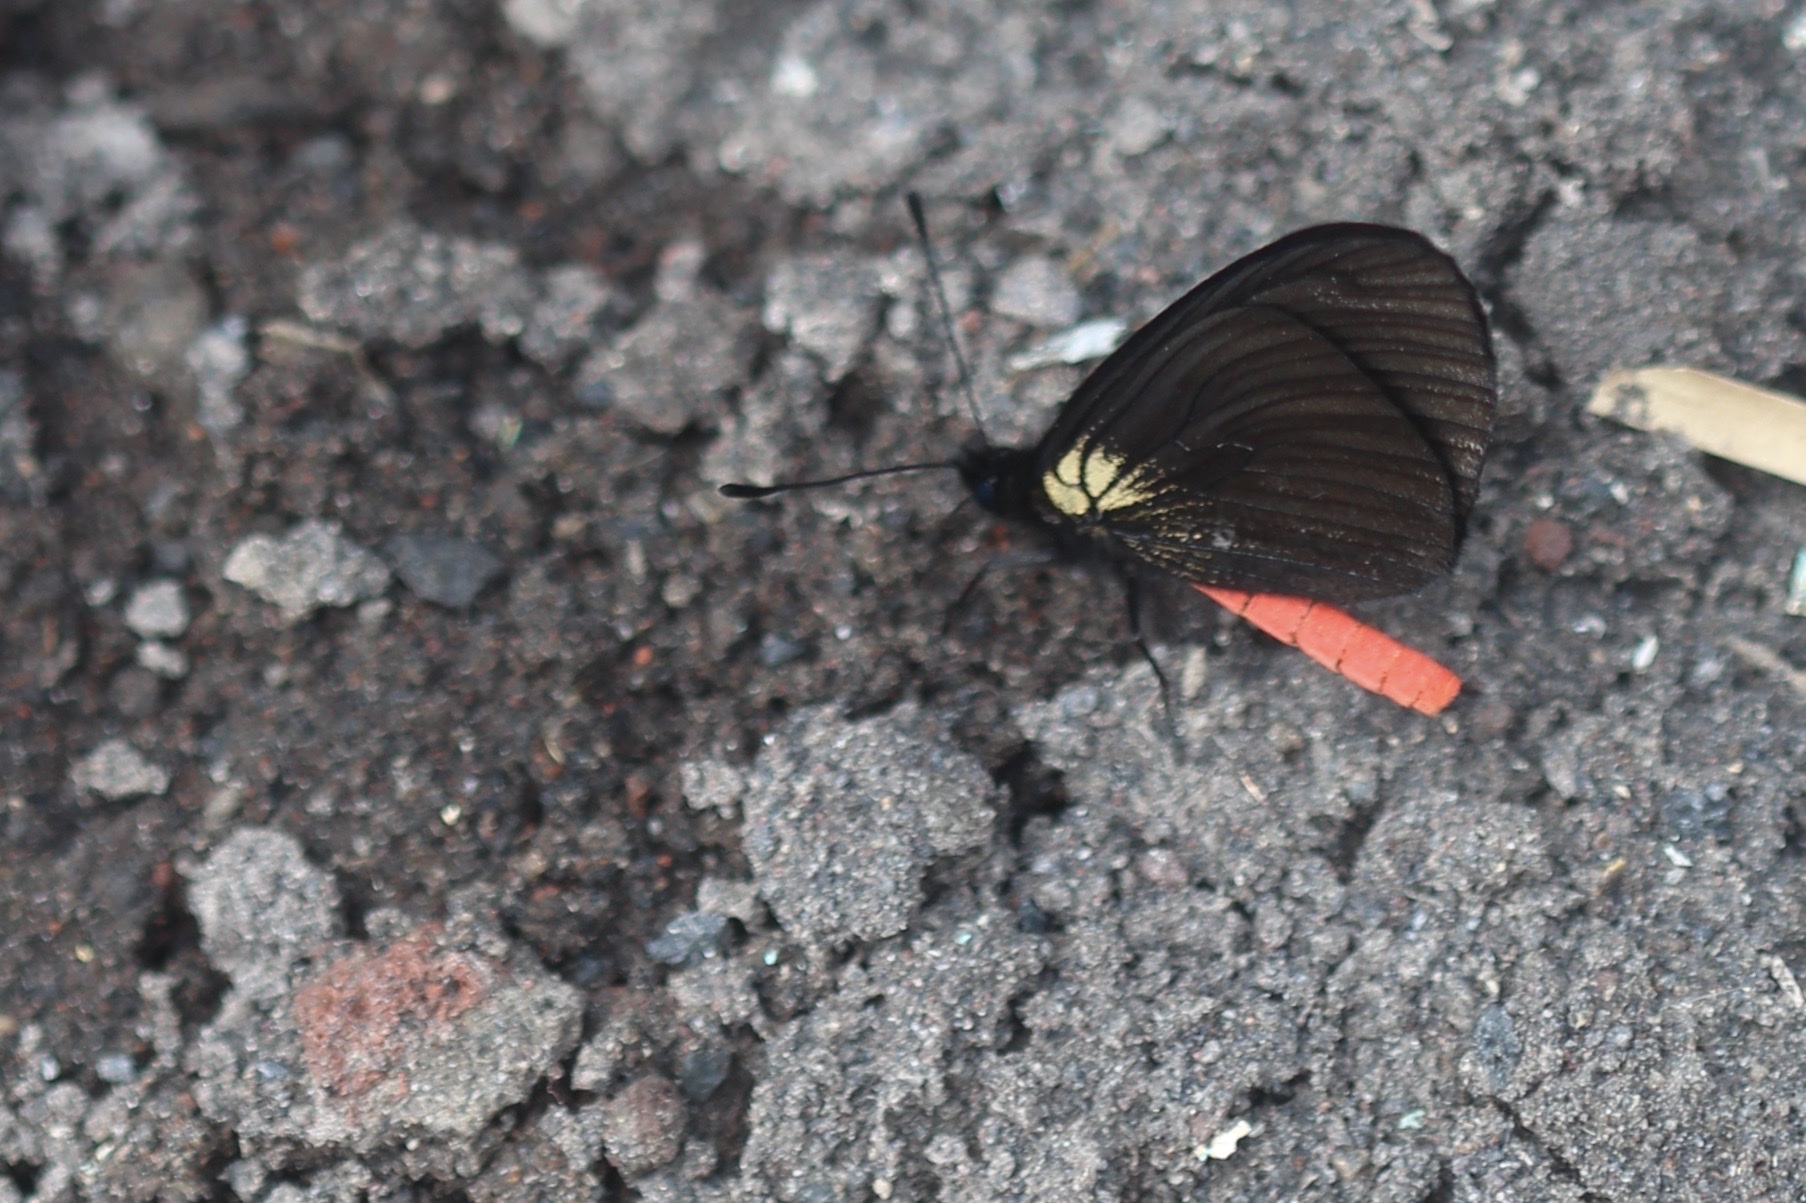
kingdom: Animalia
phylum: Arthropoda
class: Insecta
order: Lepidoptera
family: Nymphalidae
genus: Actinote
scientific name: Actinote neleus
